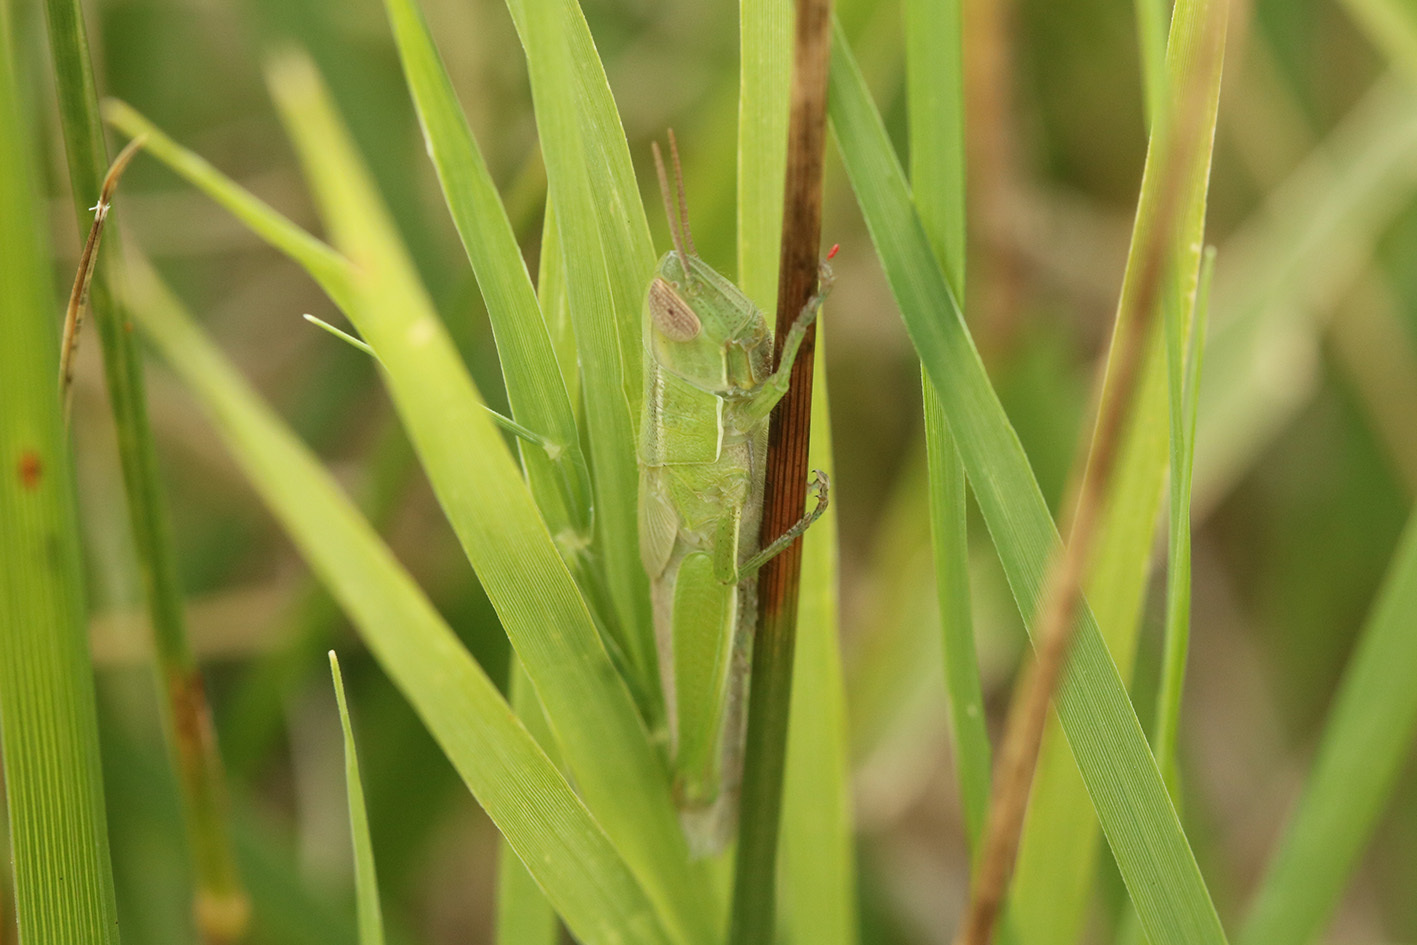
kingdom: Animalia
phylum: Arthropoda
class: Insecta
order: Orthoptera
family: Acrididae
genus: Aleuas
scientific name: Aleuas lineatus
